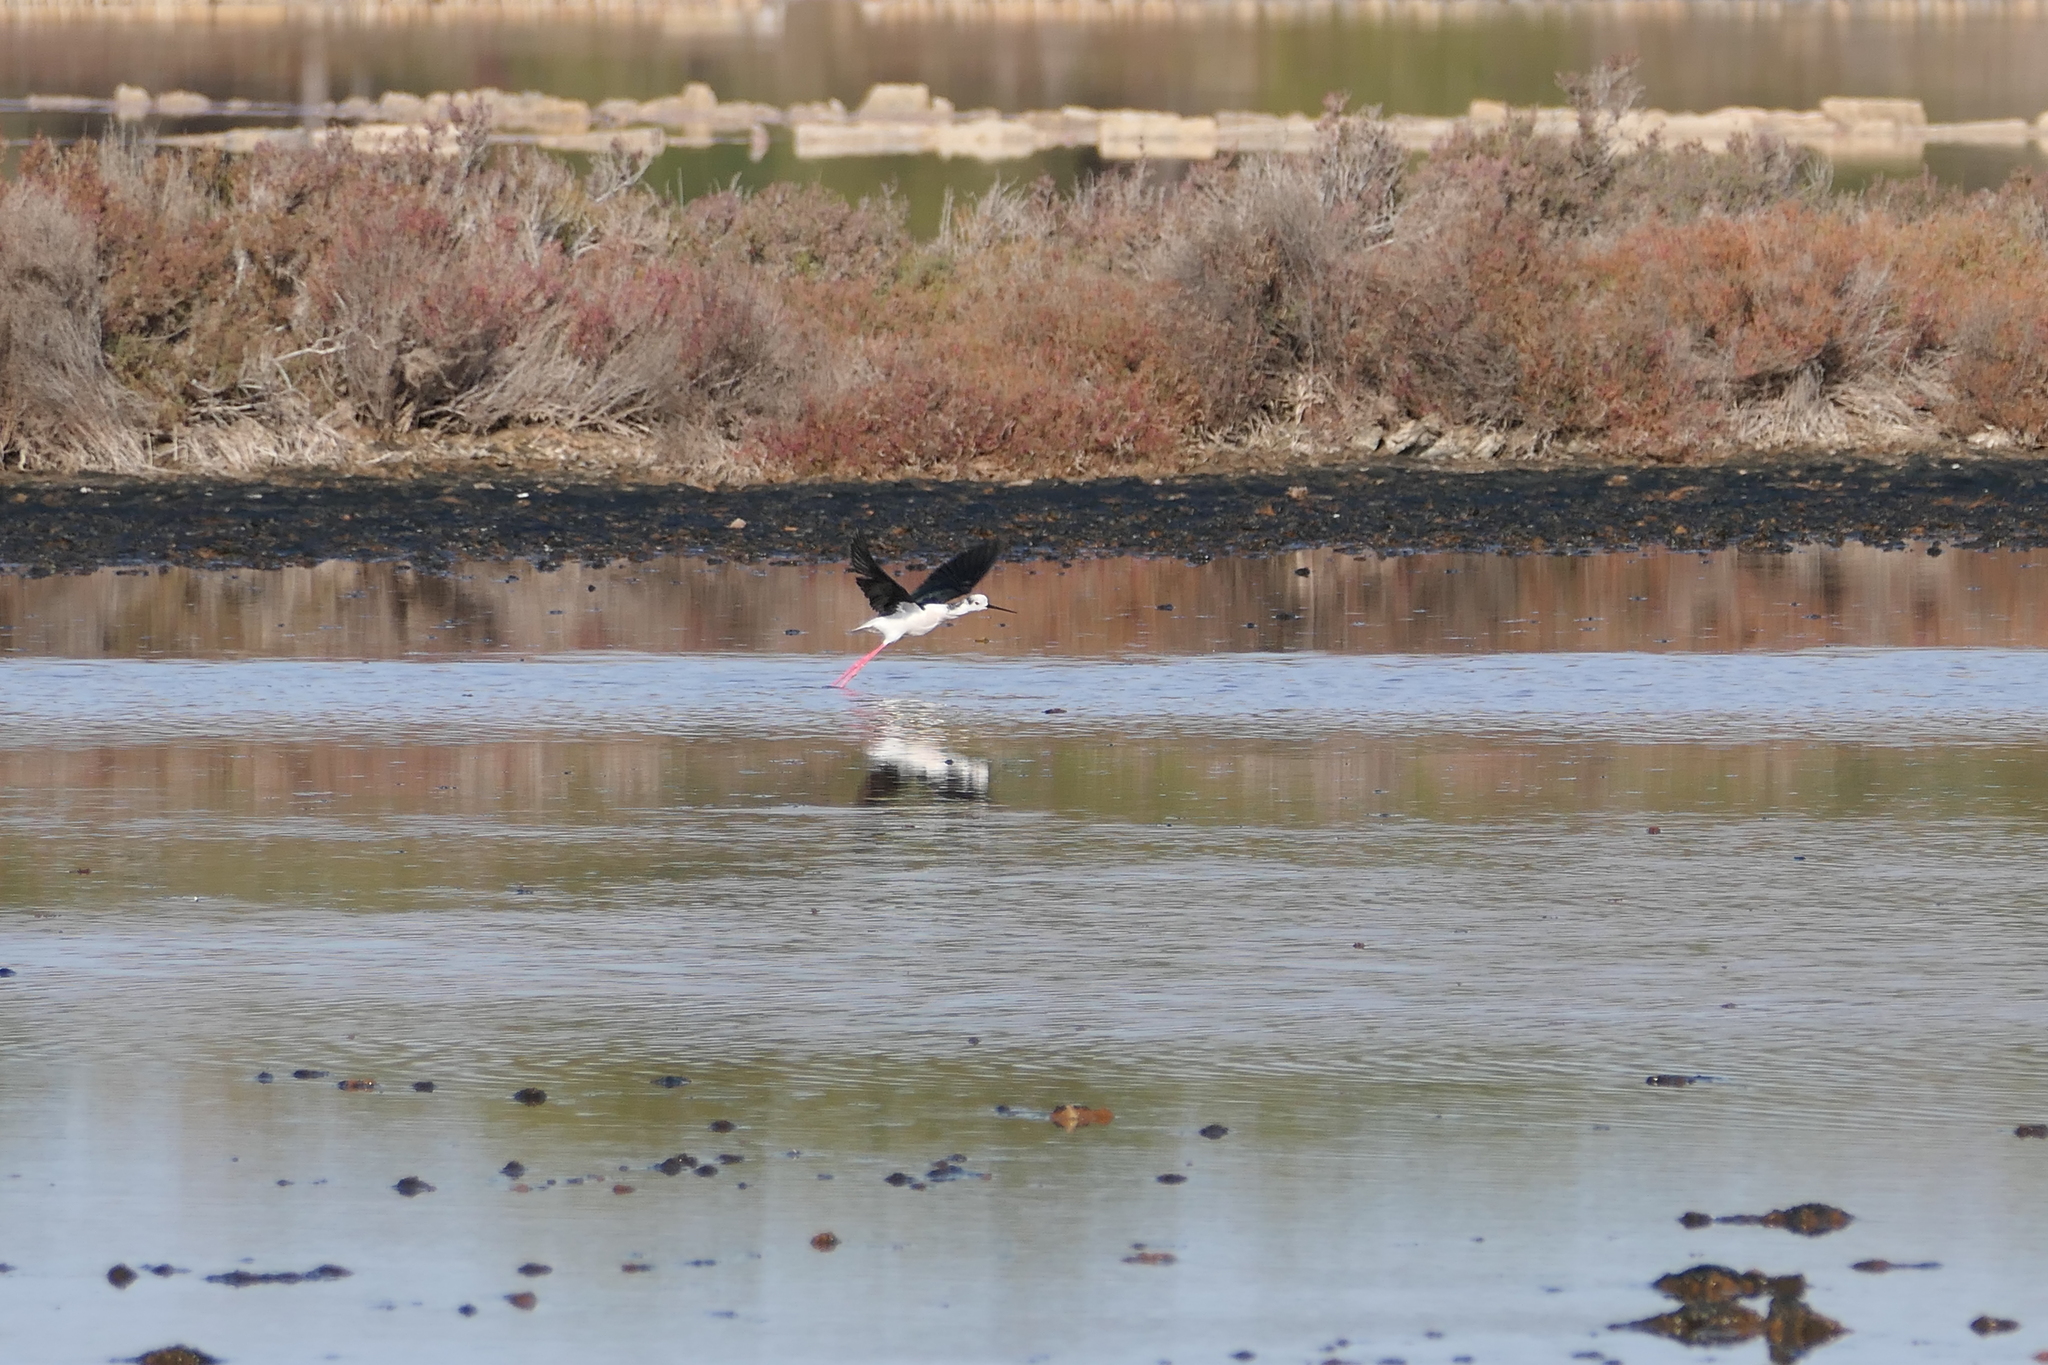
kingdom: Animalia
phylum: Chordata
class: Aves
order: Charadriiformes
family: Recurvirostridae
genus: Himantopus
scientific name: Himantopus himantopus
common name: Black-winged stilt
